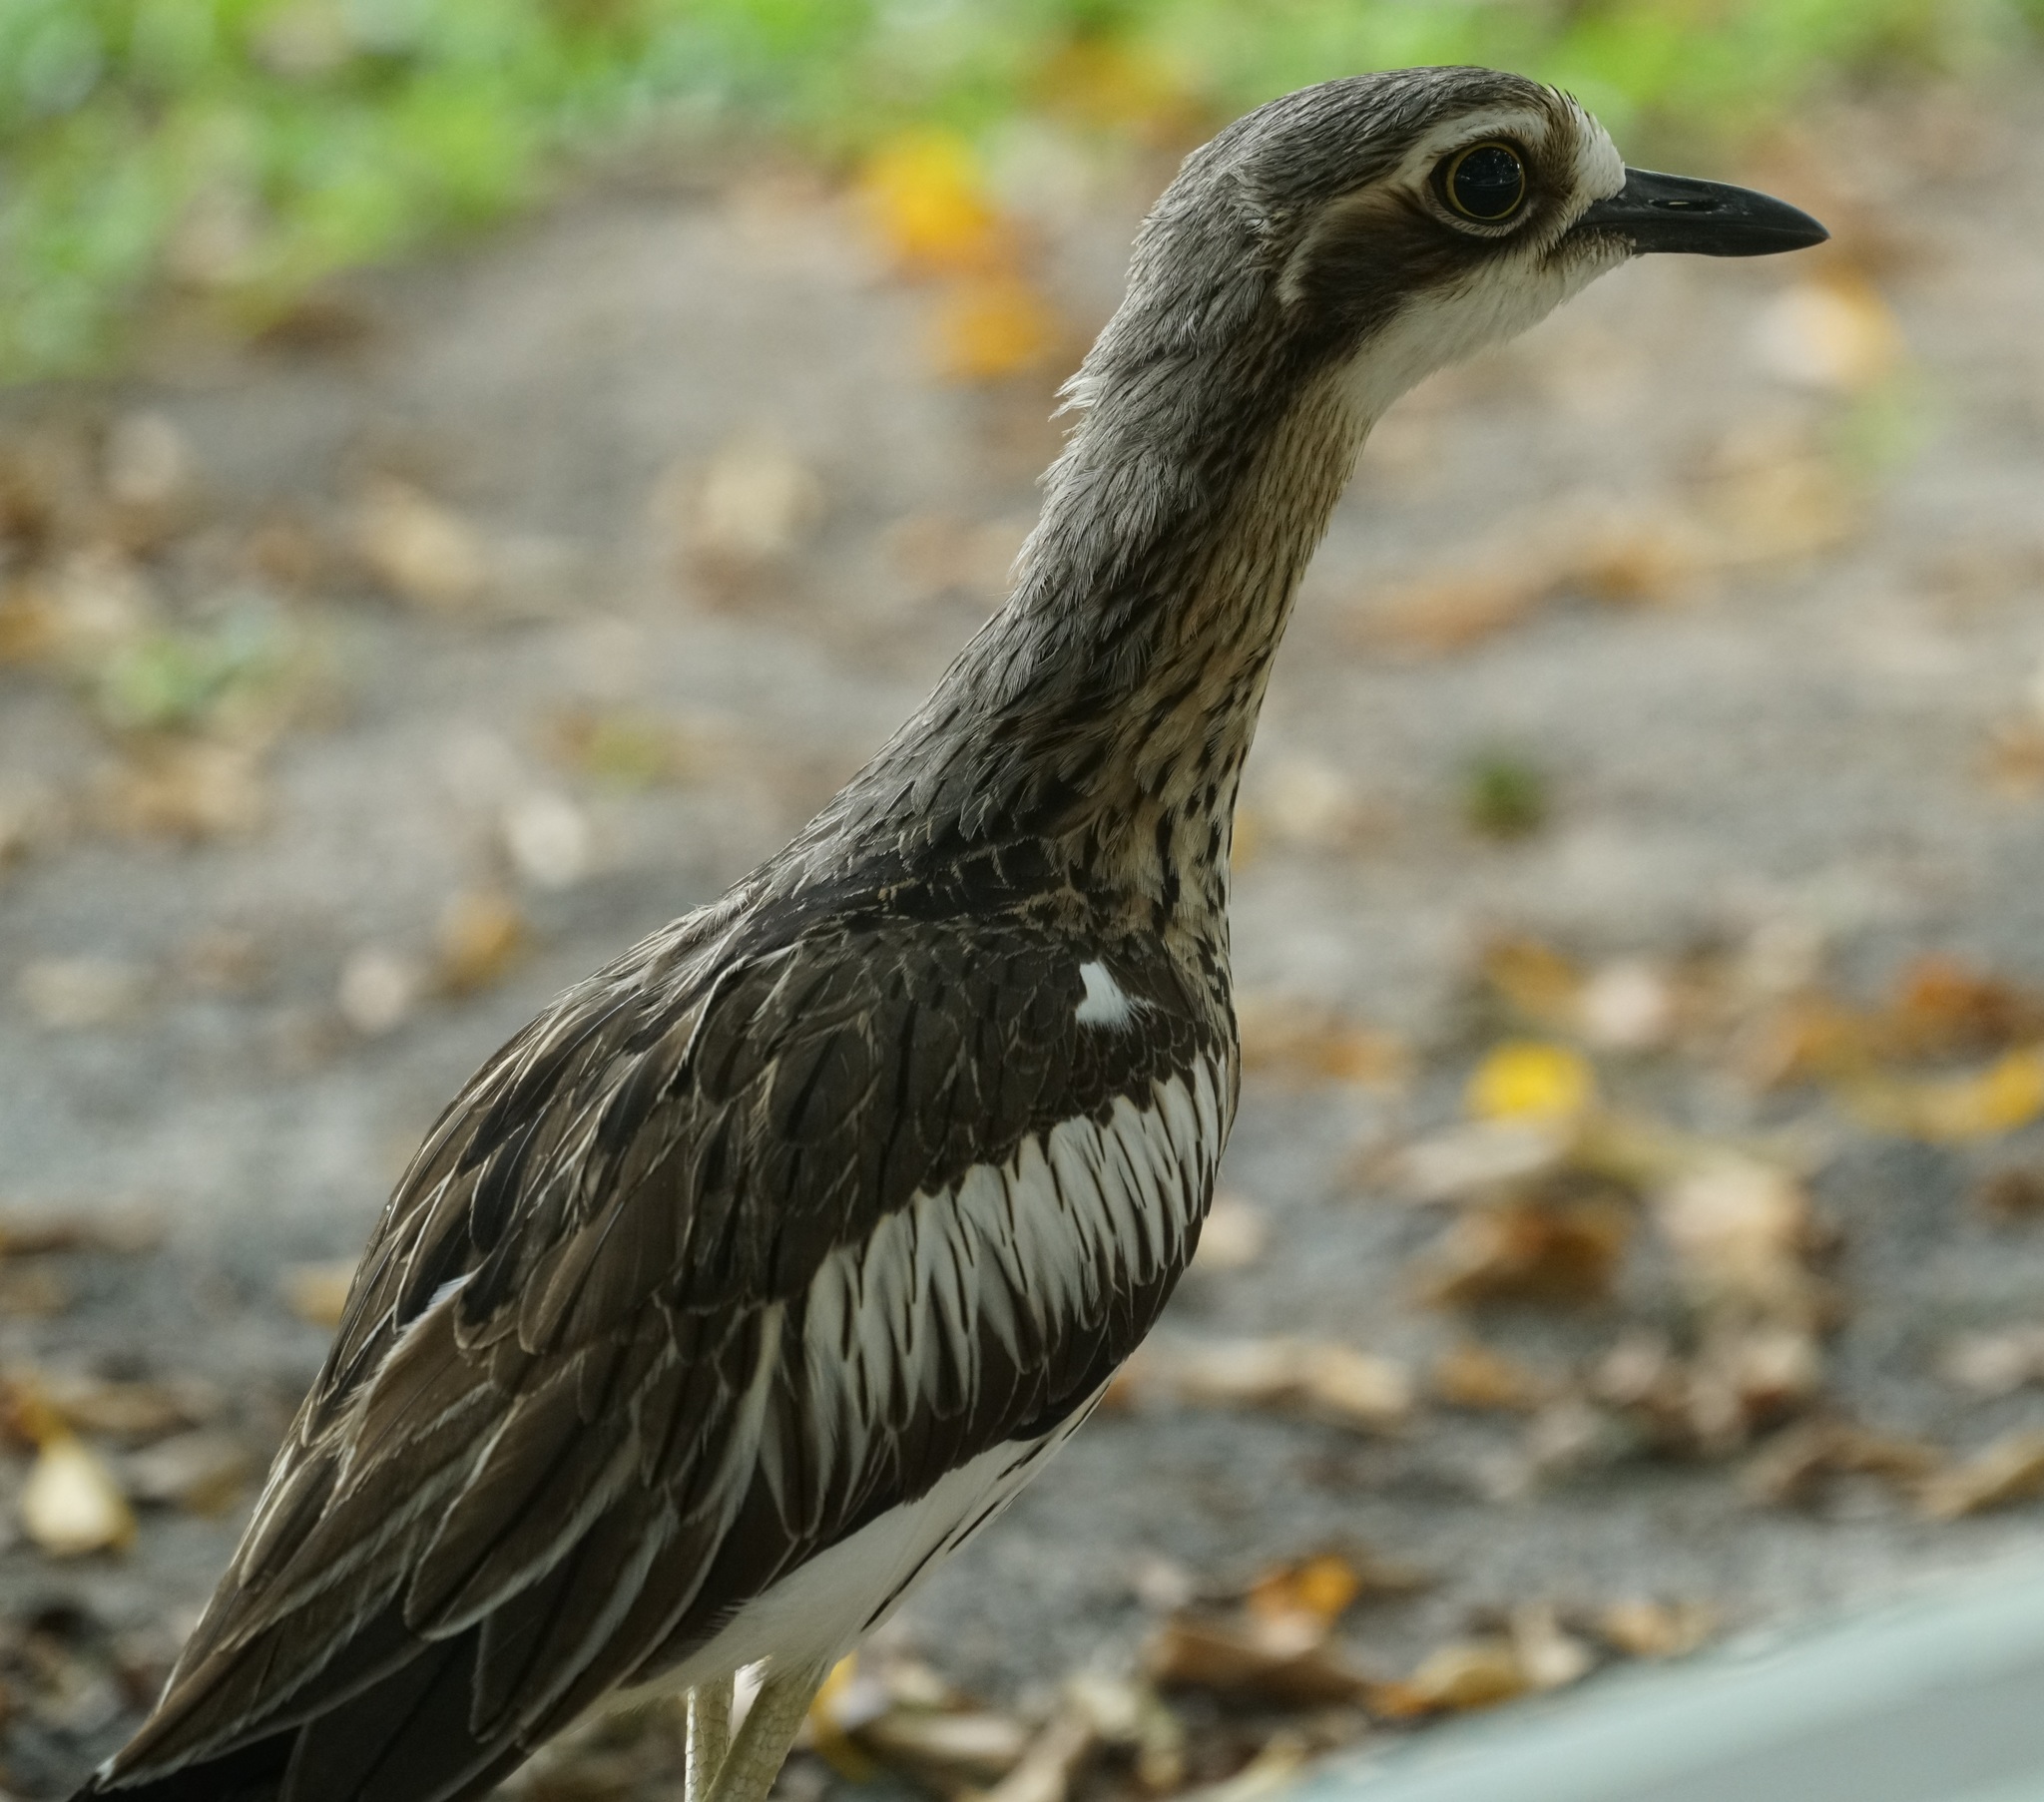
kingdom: Animalia
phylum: Chordata
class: Aves
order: Charadriiformes
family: Burhinidae
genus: Burhinus
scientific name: Burhinus grallarius
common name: Bush stone-curlew
